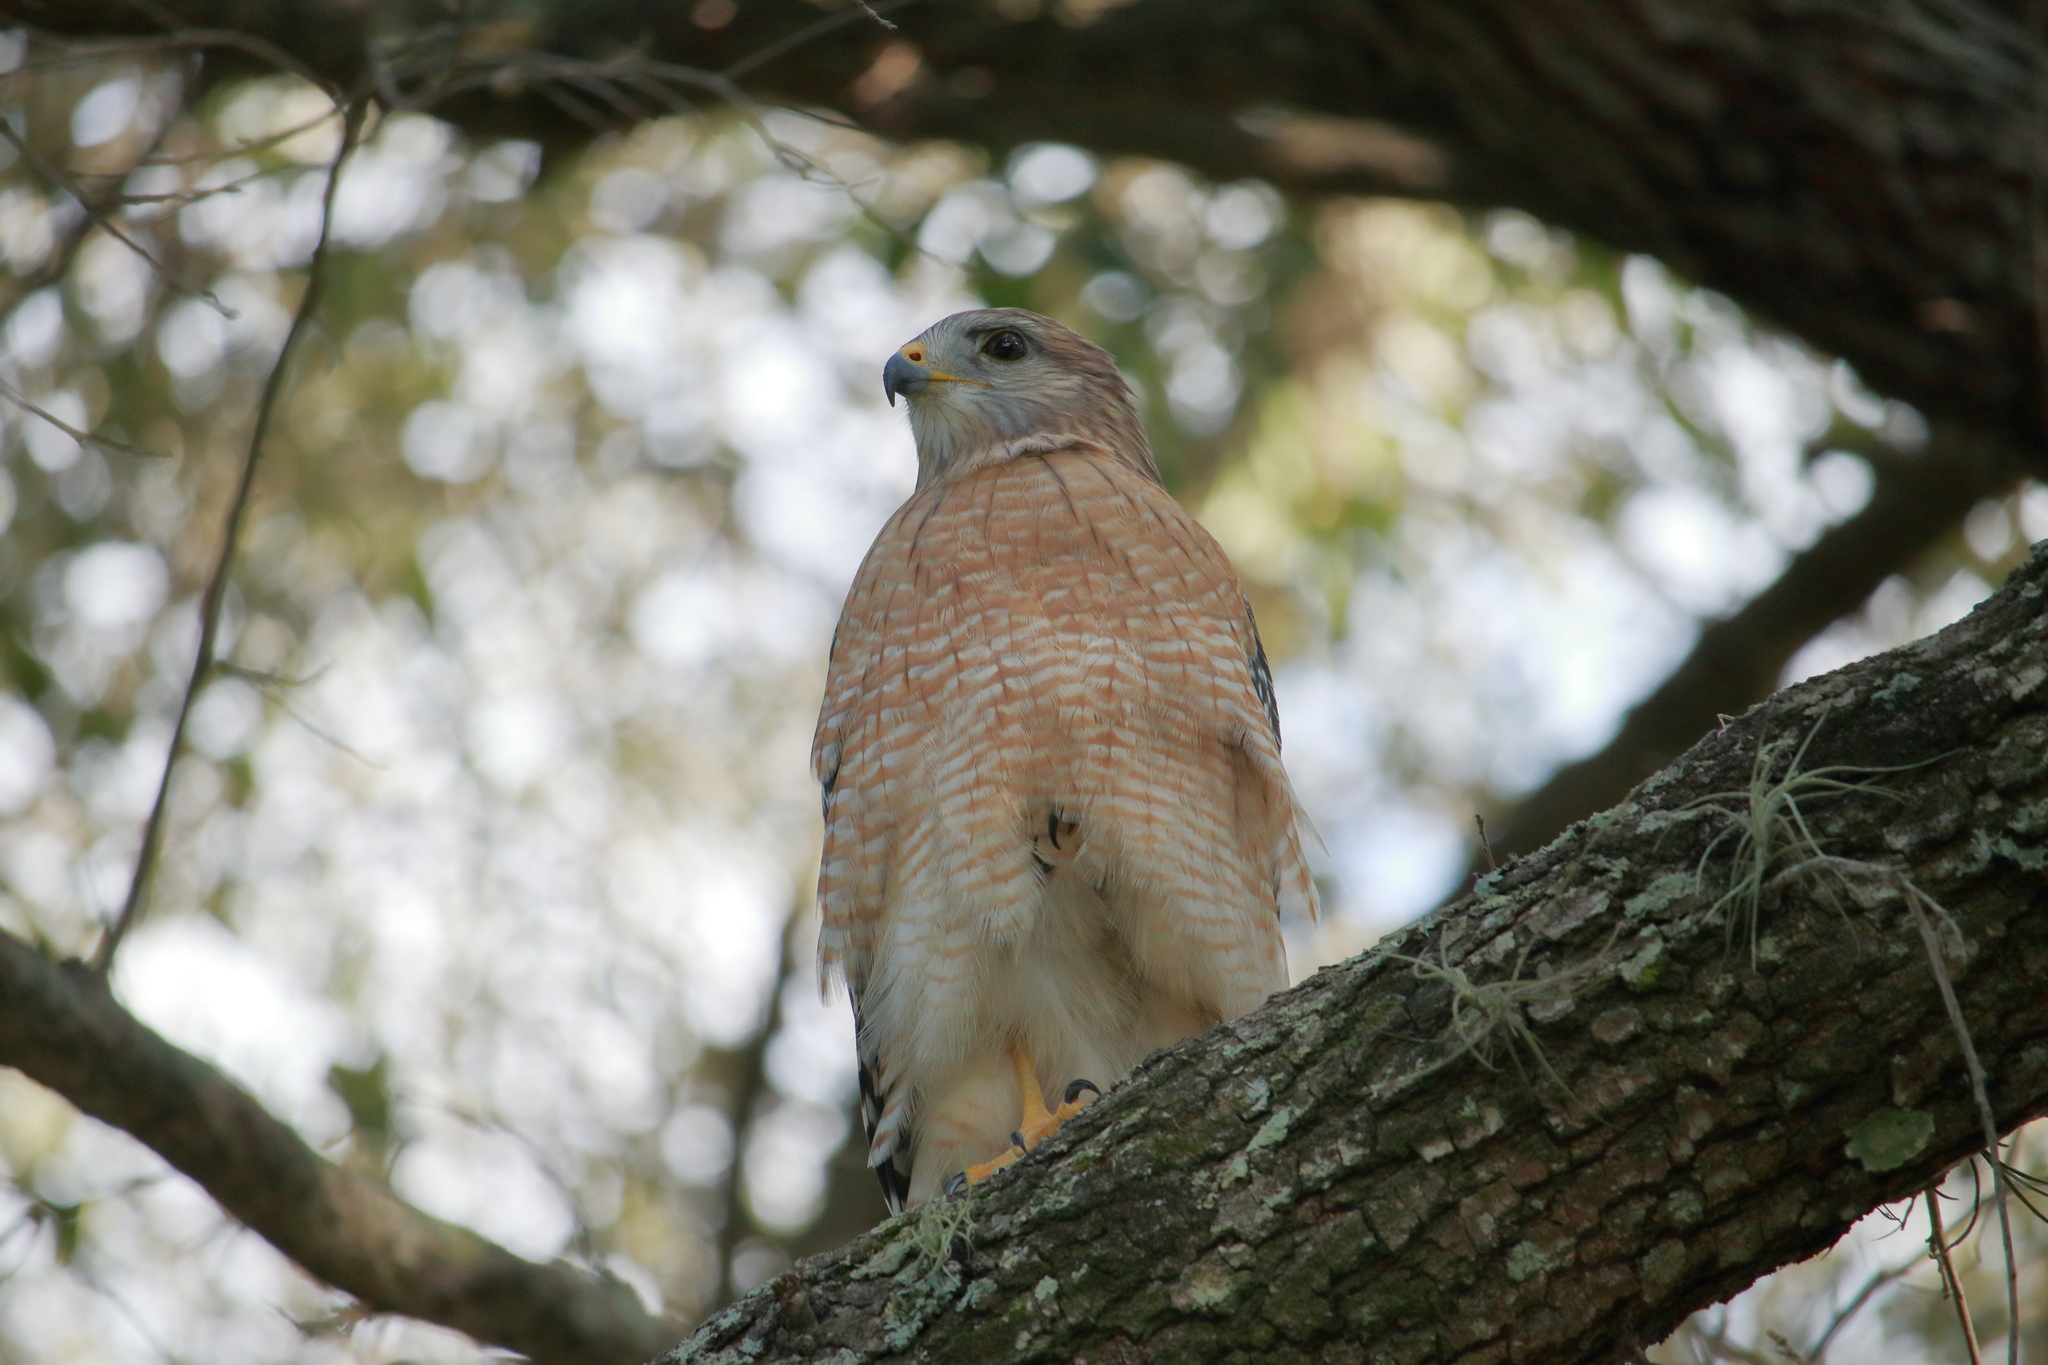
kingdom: Animalia
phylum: Chordata
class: Aves
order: Accipitriformes
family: Accipitridae
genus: Buteo
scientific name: Buteo lineatus
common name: Red-shouldered hawk
